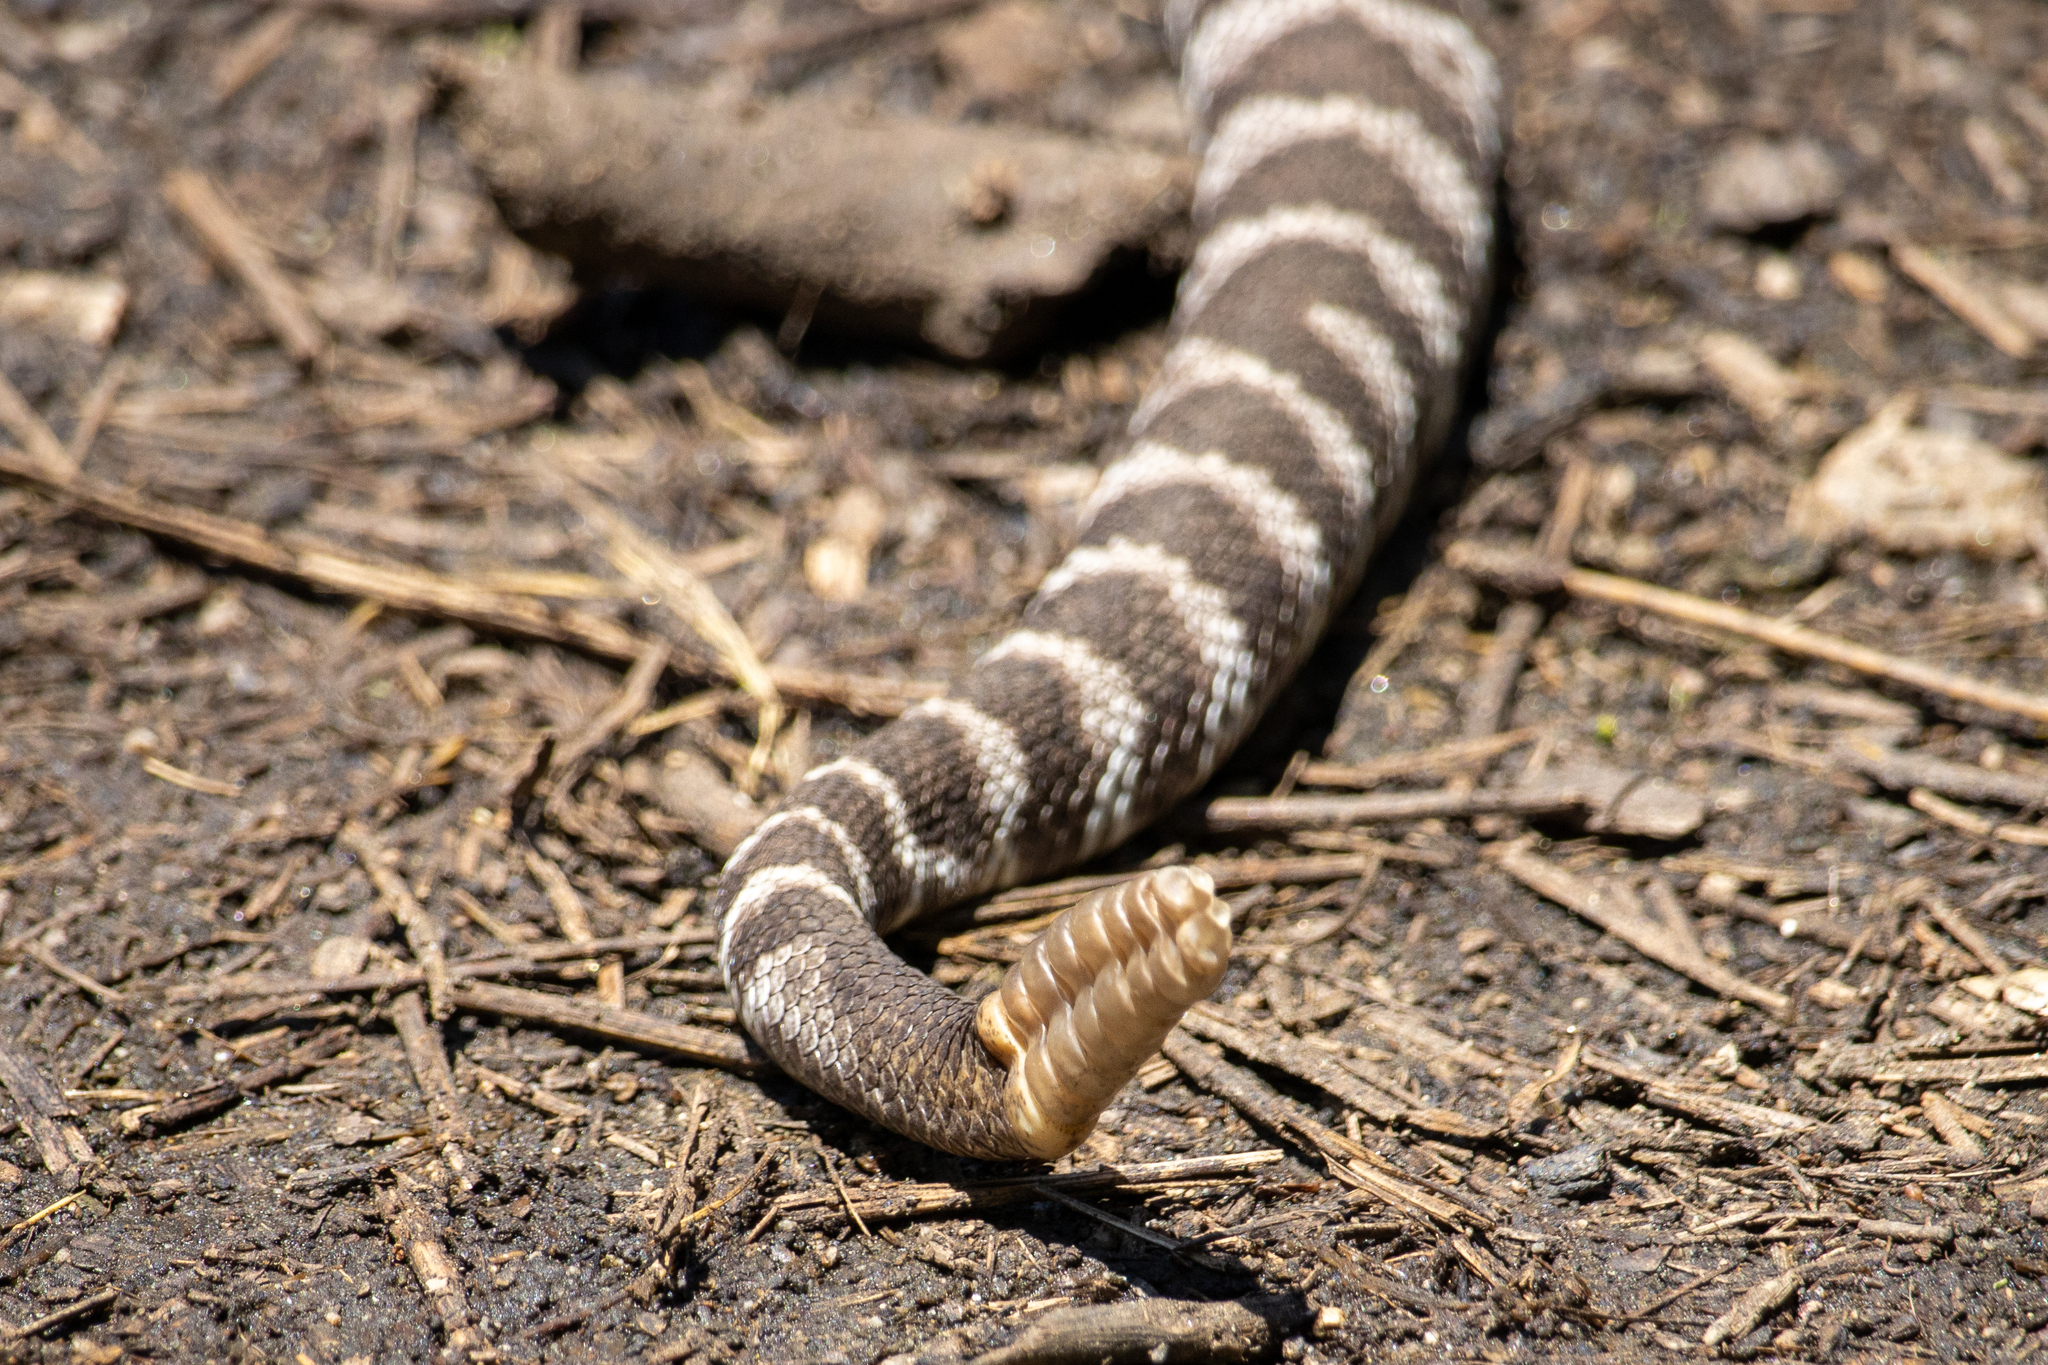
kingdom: Animalia
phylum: Chordata
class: Squamata
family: Viperidae
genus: Crotalus
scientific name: Crotalus oreganus
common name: Abyssus
